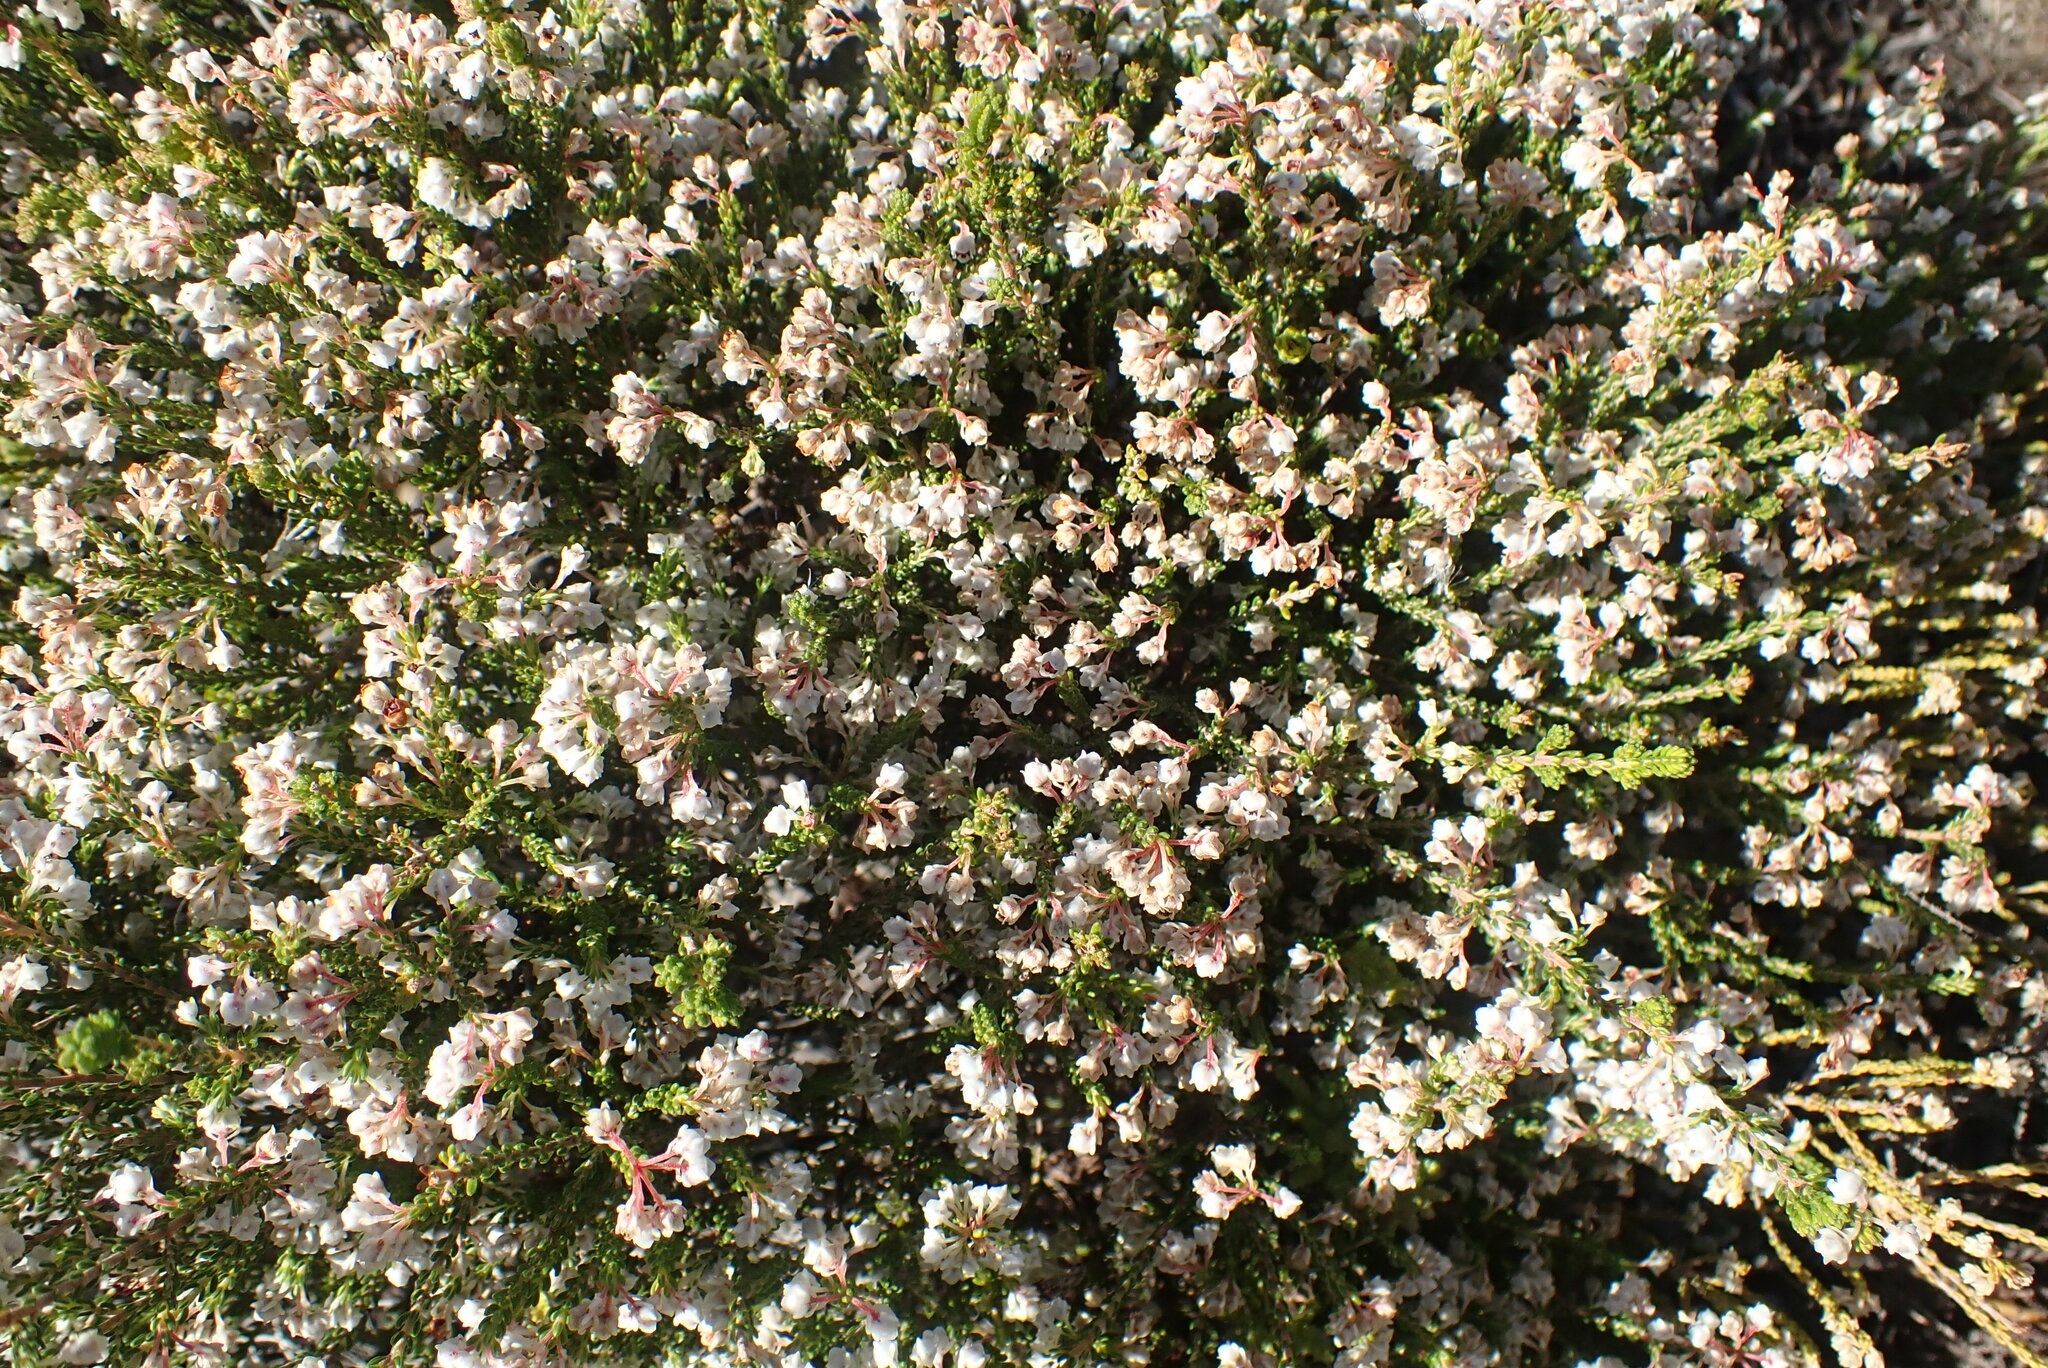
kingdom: Plantae
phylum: Tracheophyta
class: Magnoliopsida
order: Ericales
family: Ericaceae
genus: Erica
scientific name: Erica spectabilis
